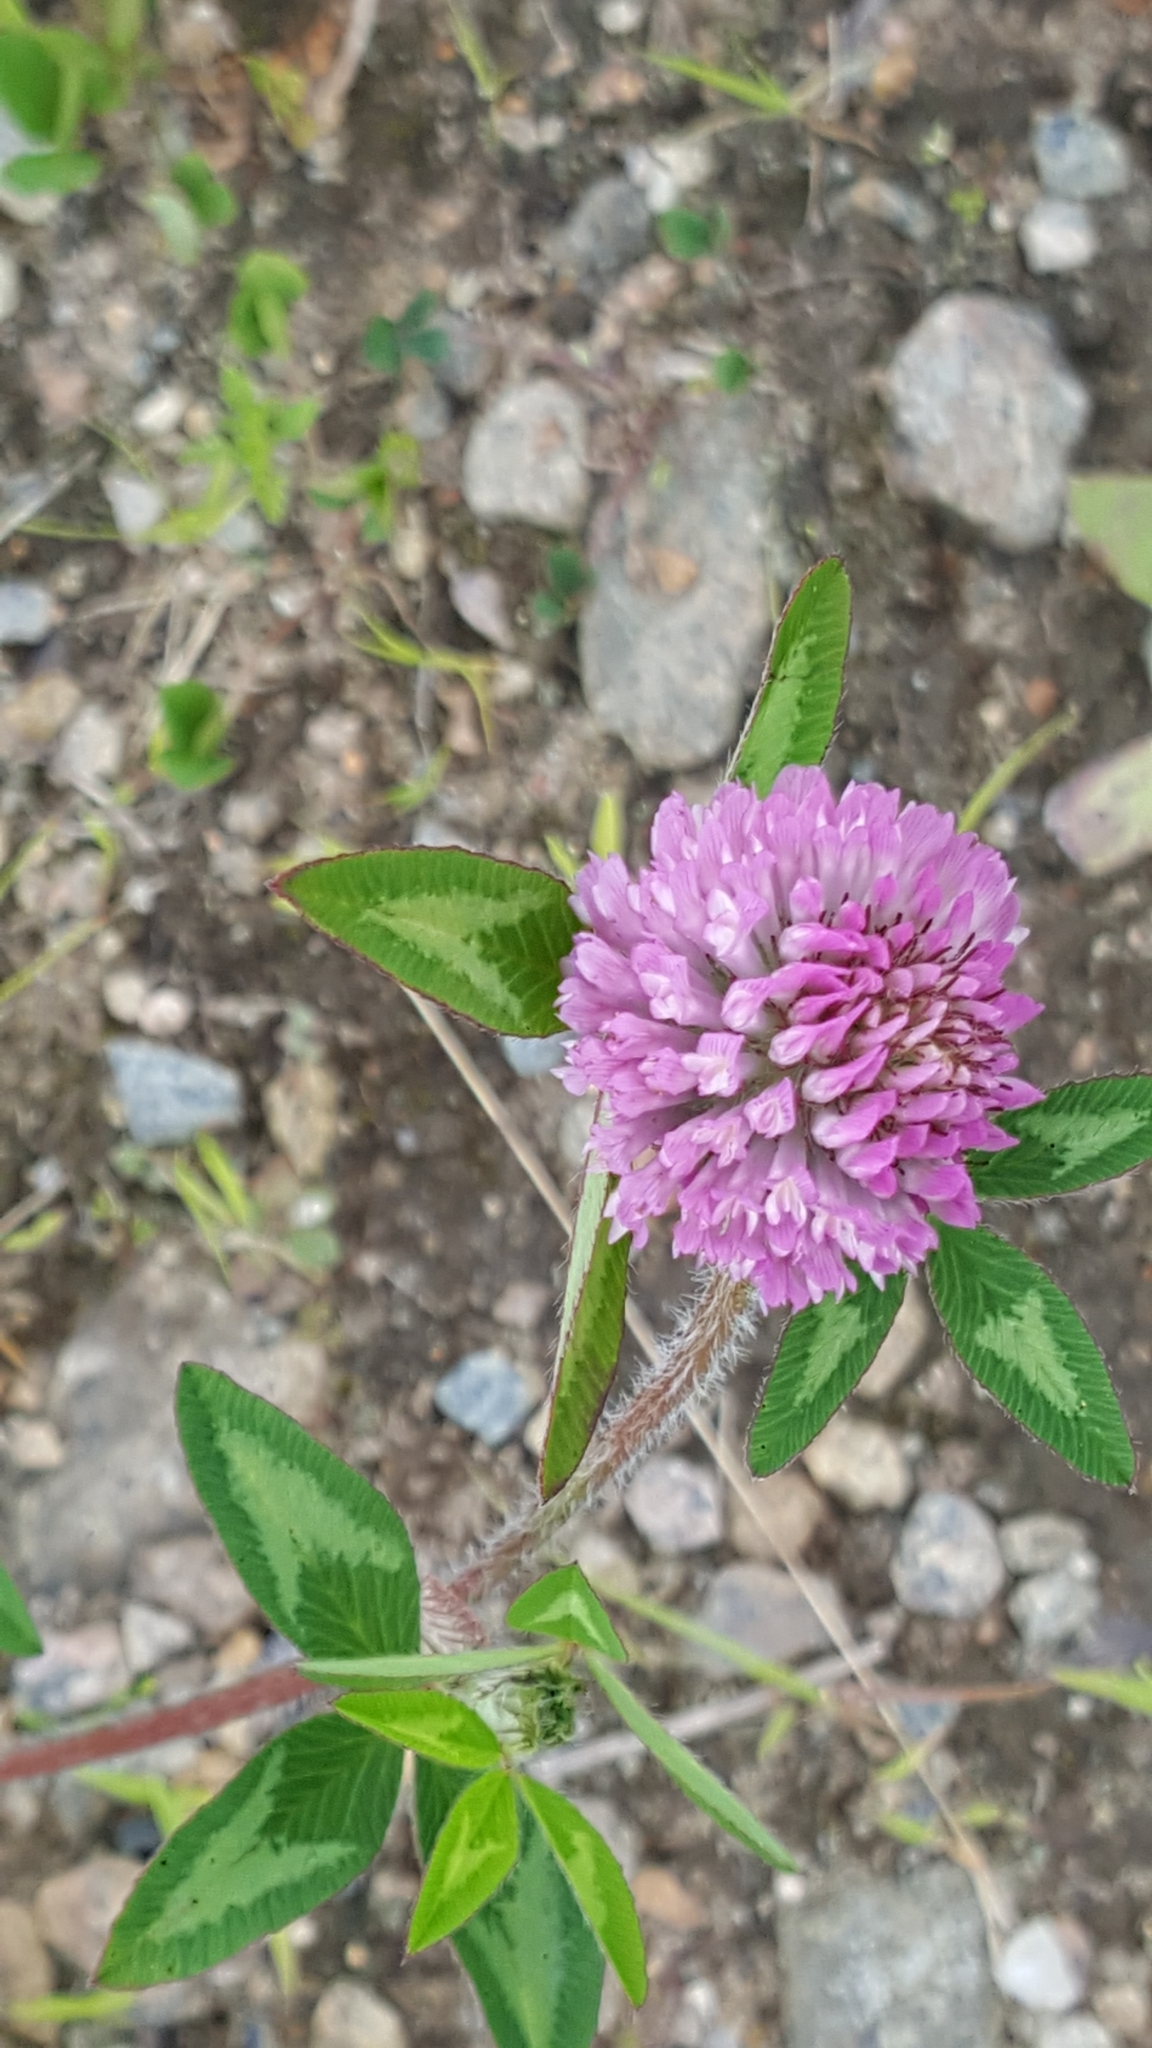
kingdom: Plantae
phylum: Tracheophyta
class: Magnoliopsida
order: Fabales
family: Fabaceae
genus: Trifolium
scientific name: Trifolium pratense
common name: Red clover
